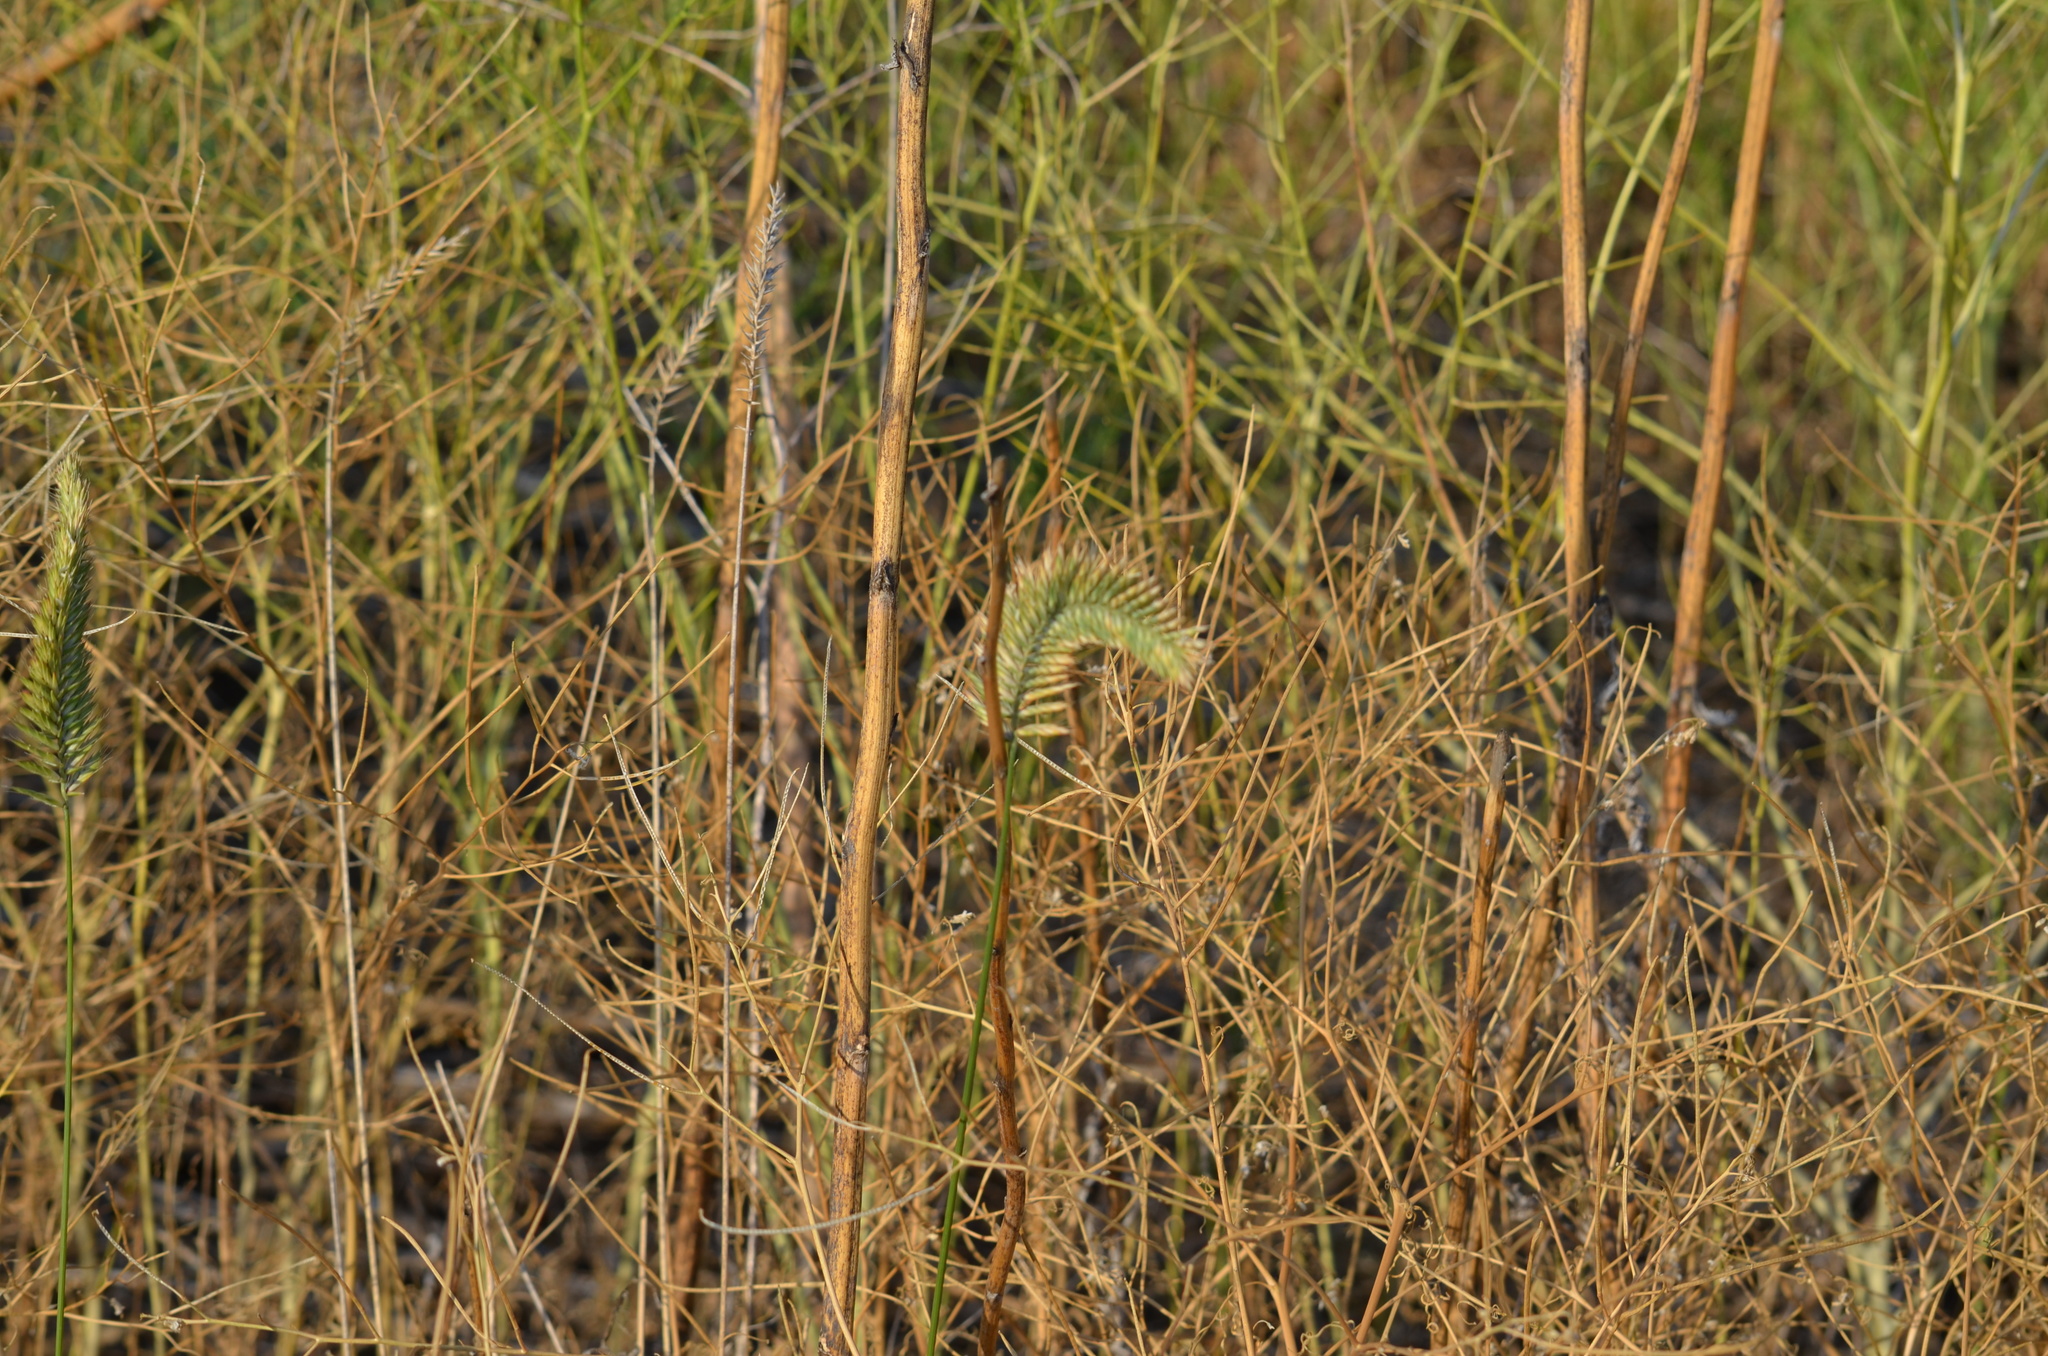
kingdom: Plantae
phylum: Tracheophyta
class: Liliopsida
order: Poales
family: Poaceae
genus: Agropyron
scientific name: Agropyron cristatum
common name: Crested wheatgrass
